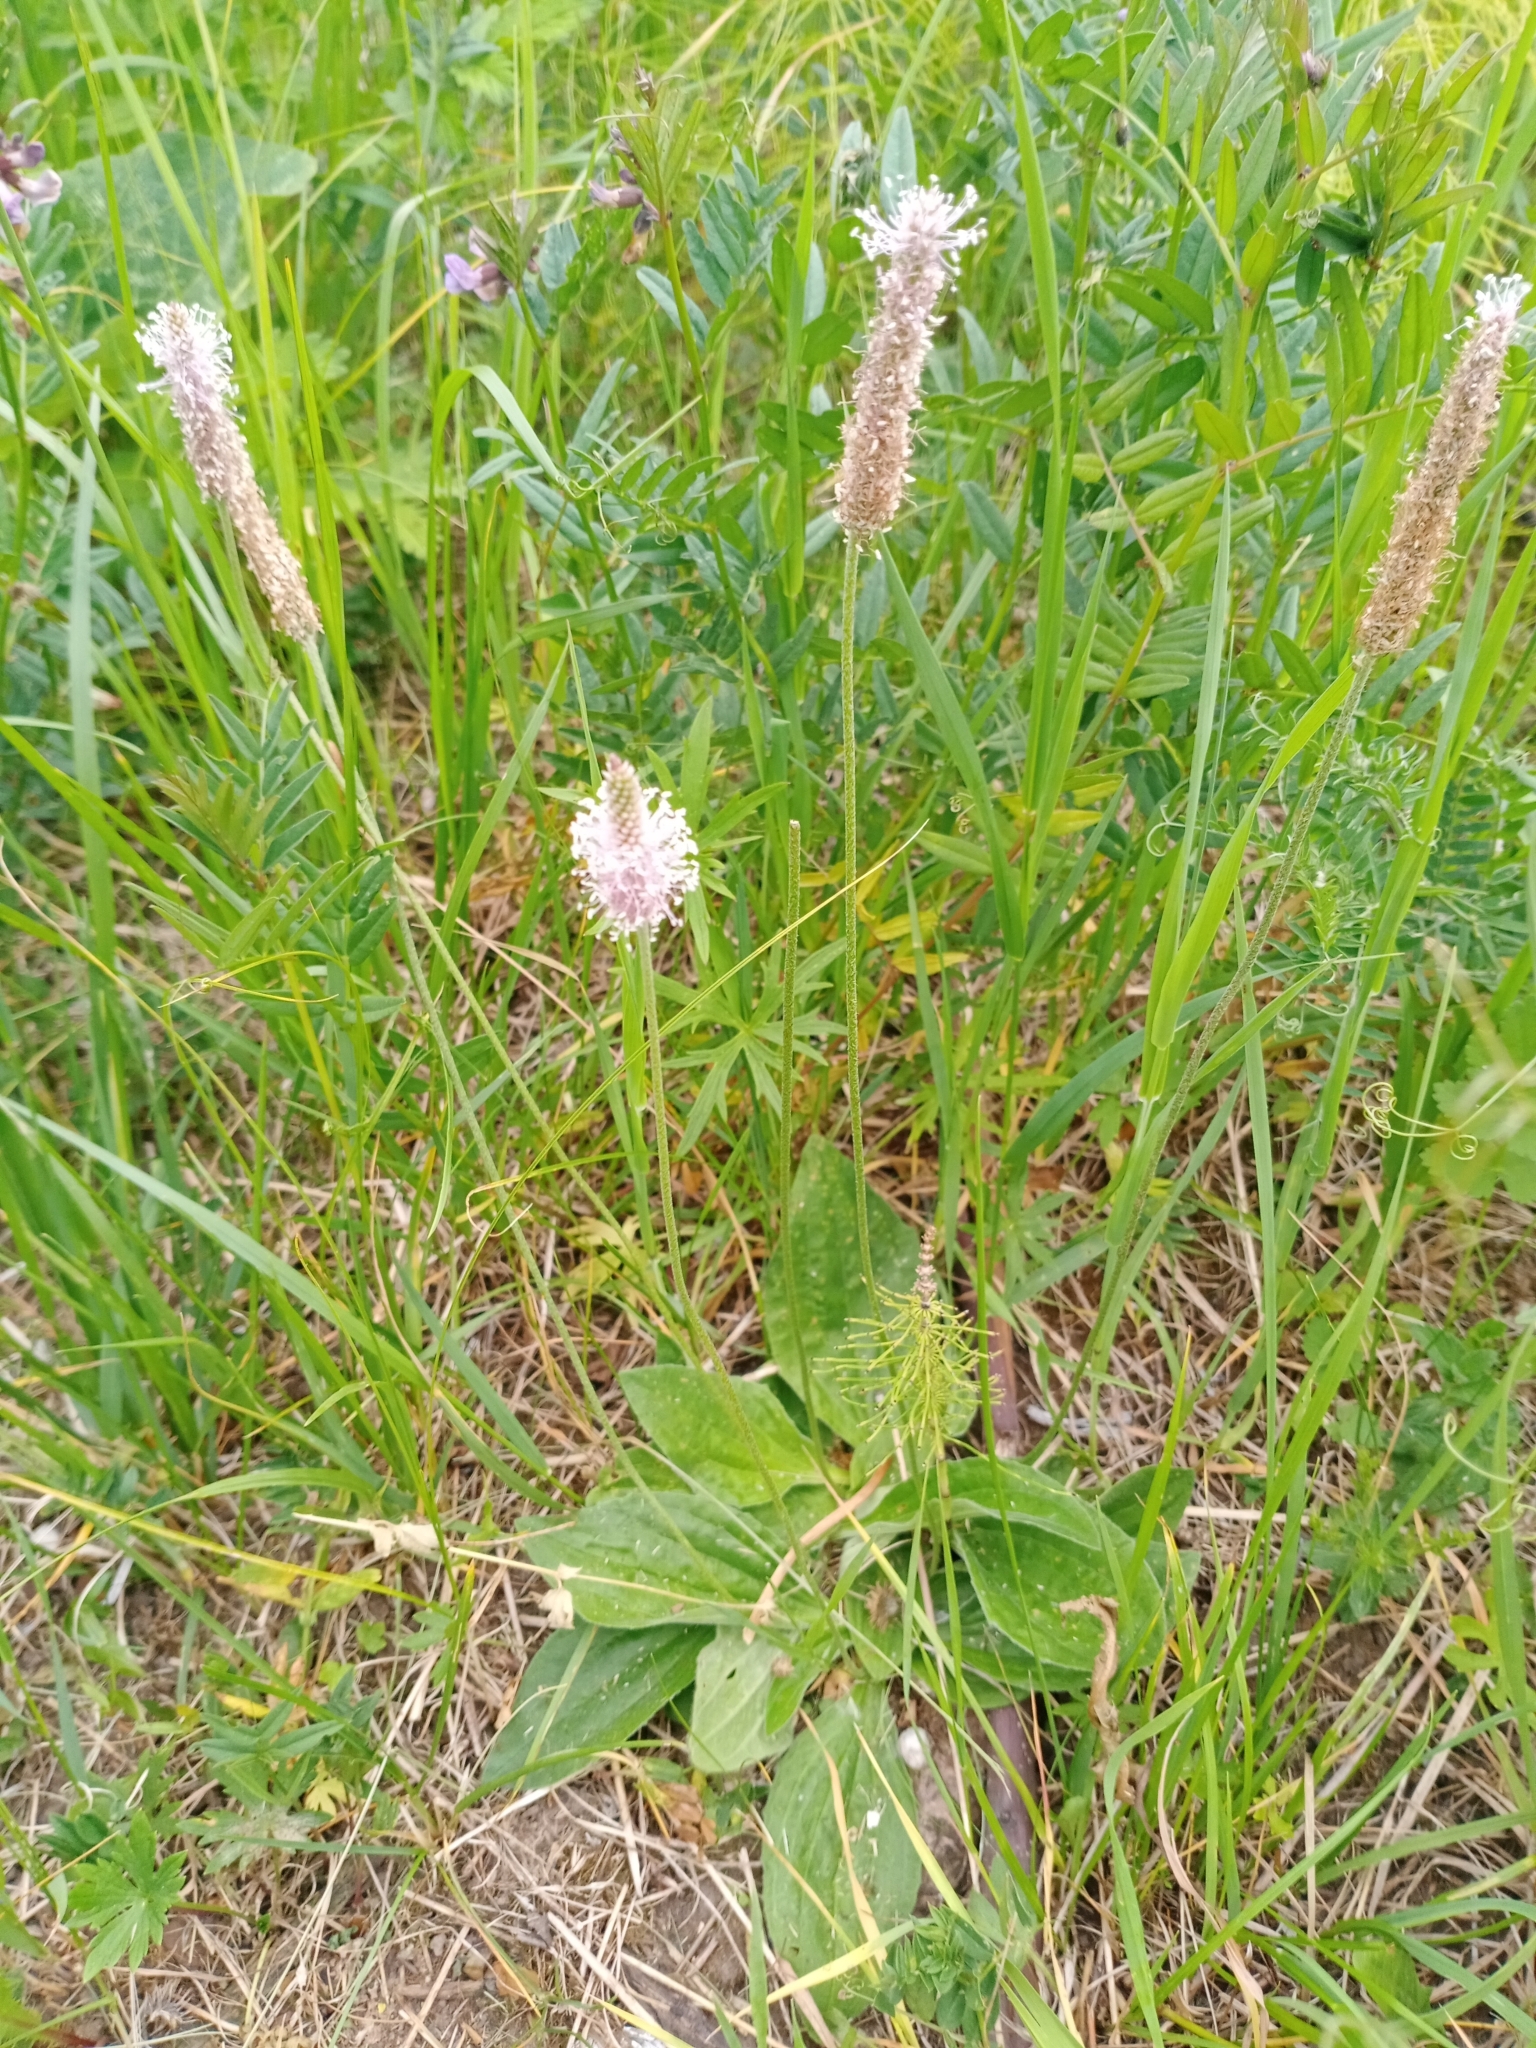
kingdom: Plantae
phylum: Tracheophyta
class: Magnoliopsida
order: Lamiales
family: Plantaginaceae
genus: Plantago
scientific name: Plantago media
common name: Hoary plantain
